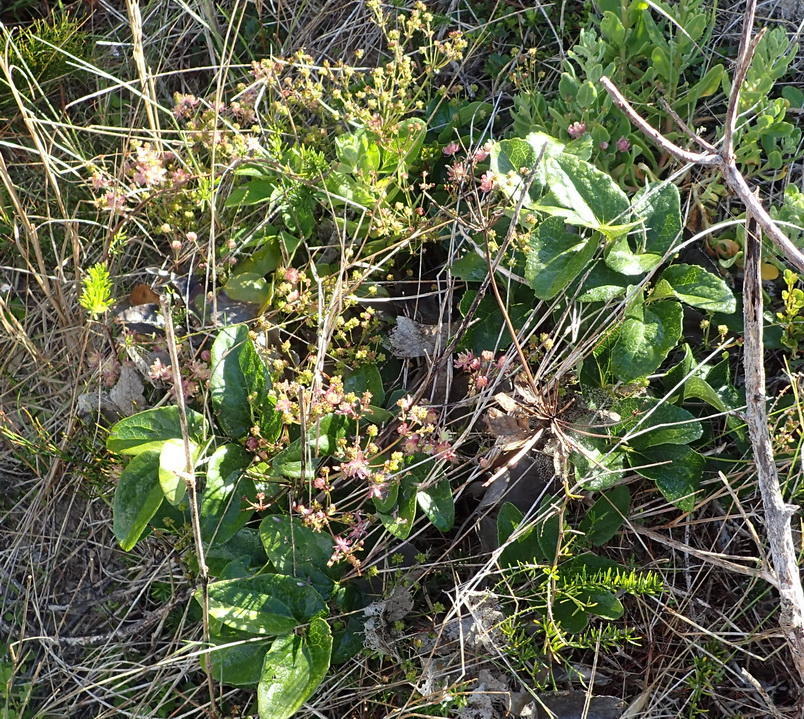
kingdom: Plantae
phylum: Tracheophyta
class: Magnoliopsida
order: Ranunculales
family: Ranunculaceae
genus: Knowltonia
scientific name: Knowltonia vesicatoria
